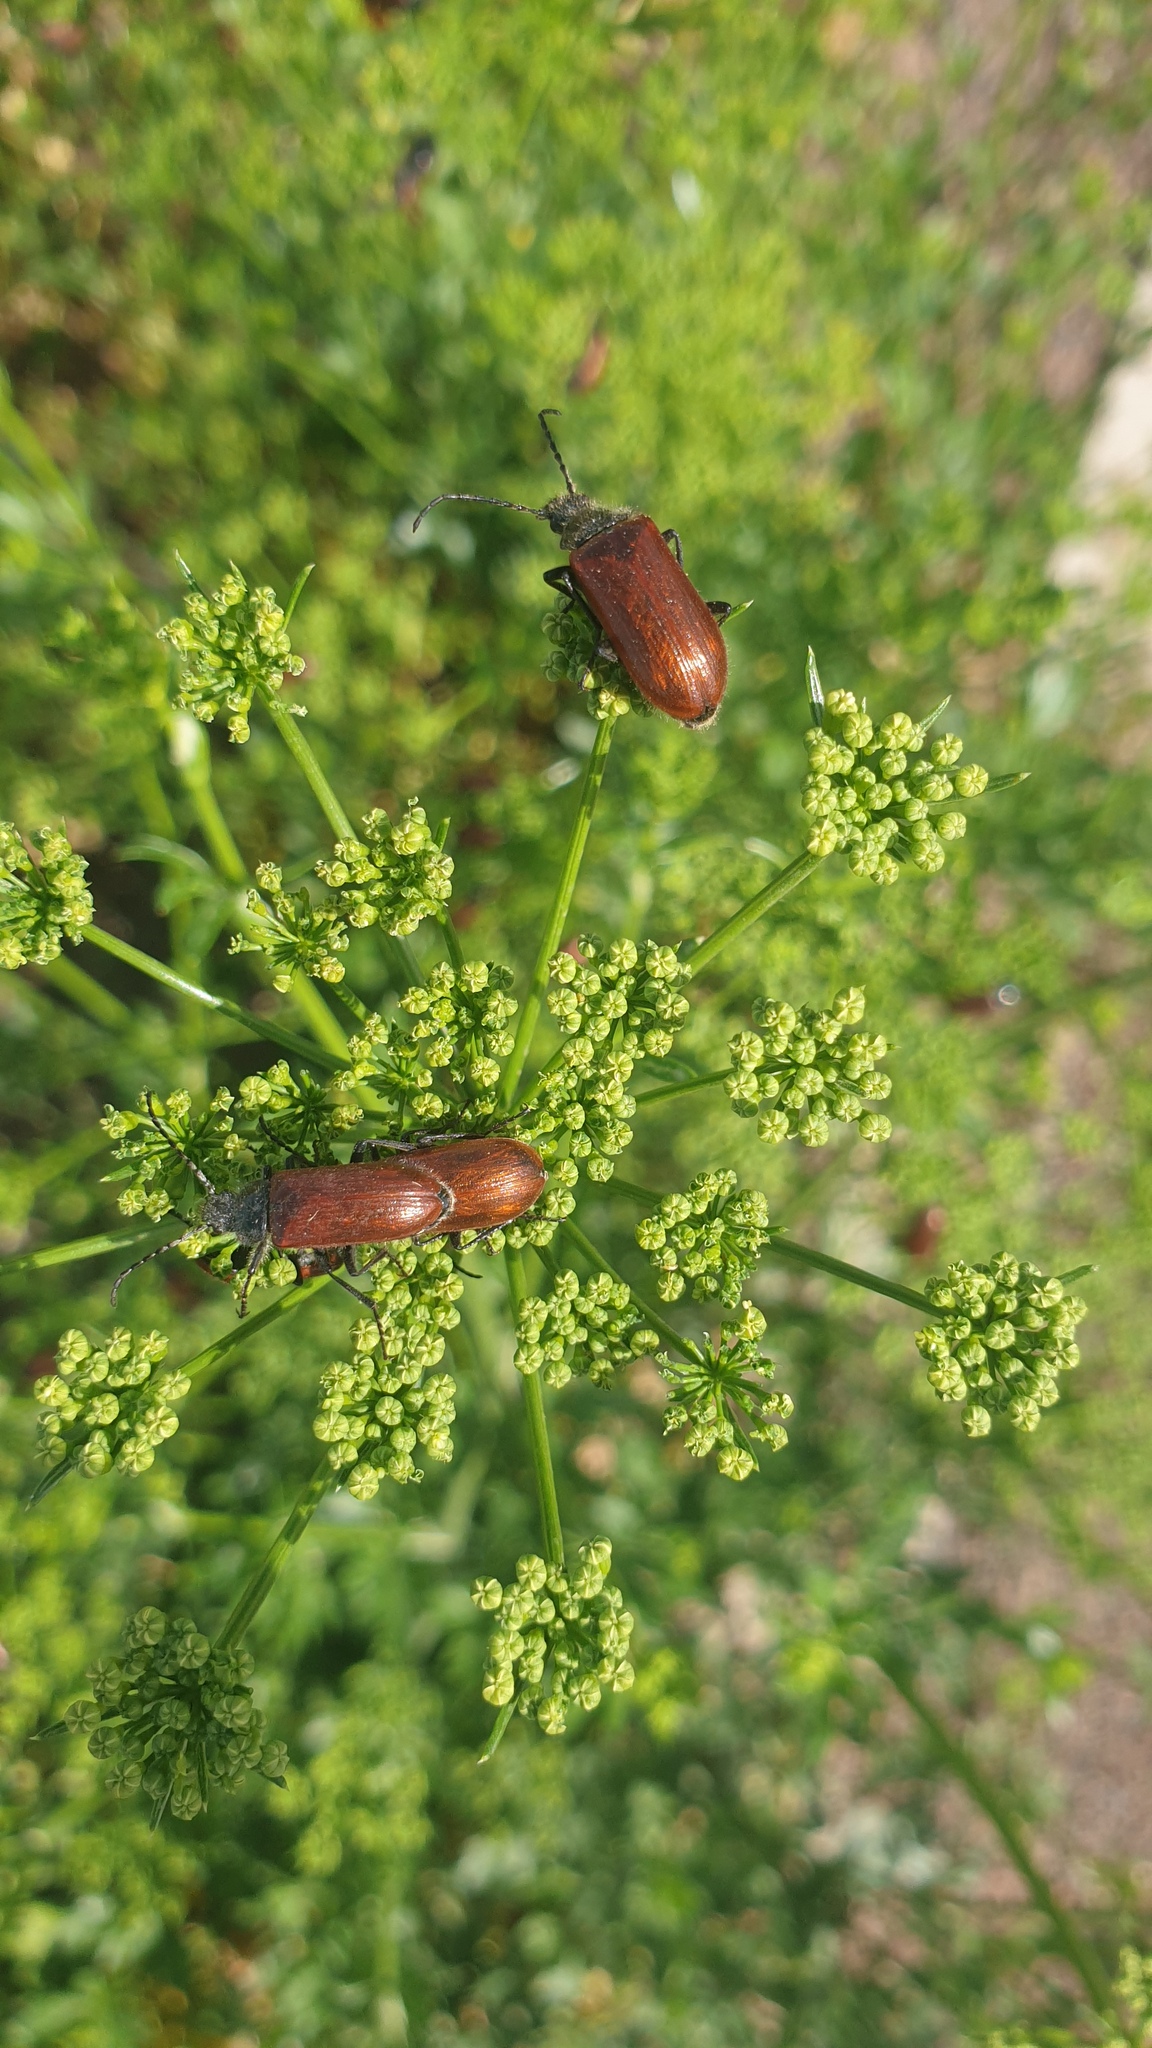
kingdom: Animalia
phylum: Arthropoda
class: Insecta
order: Coleoptera
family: Tenebrionidae
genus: Omophlus
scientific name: Omophlus lepturoides
